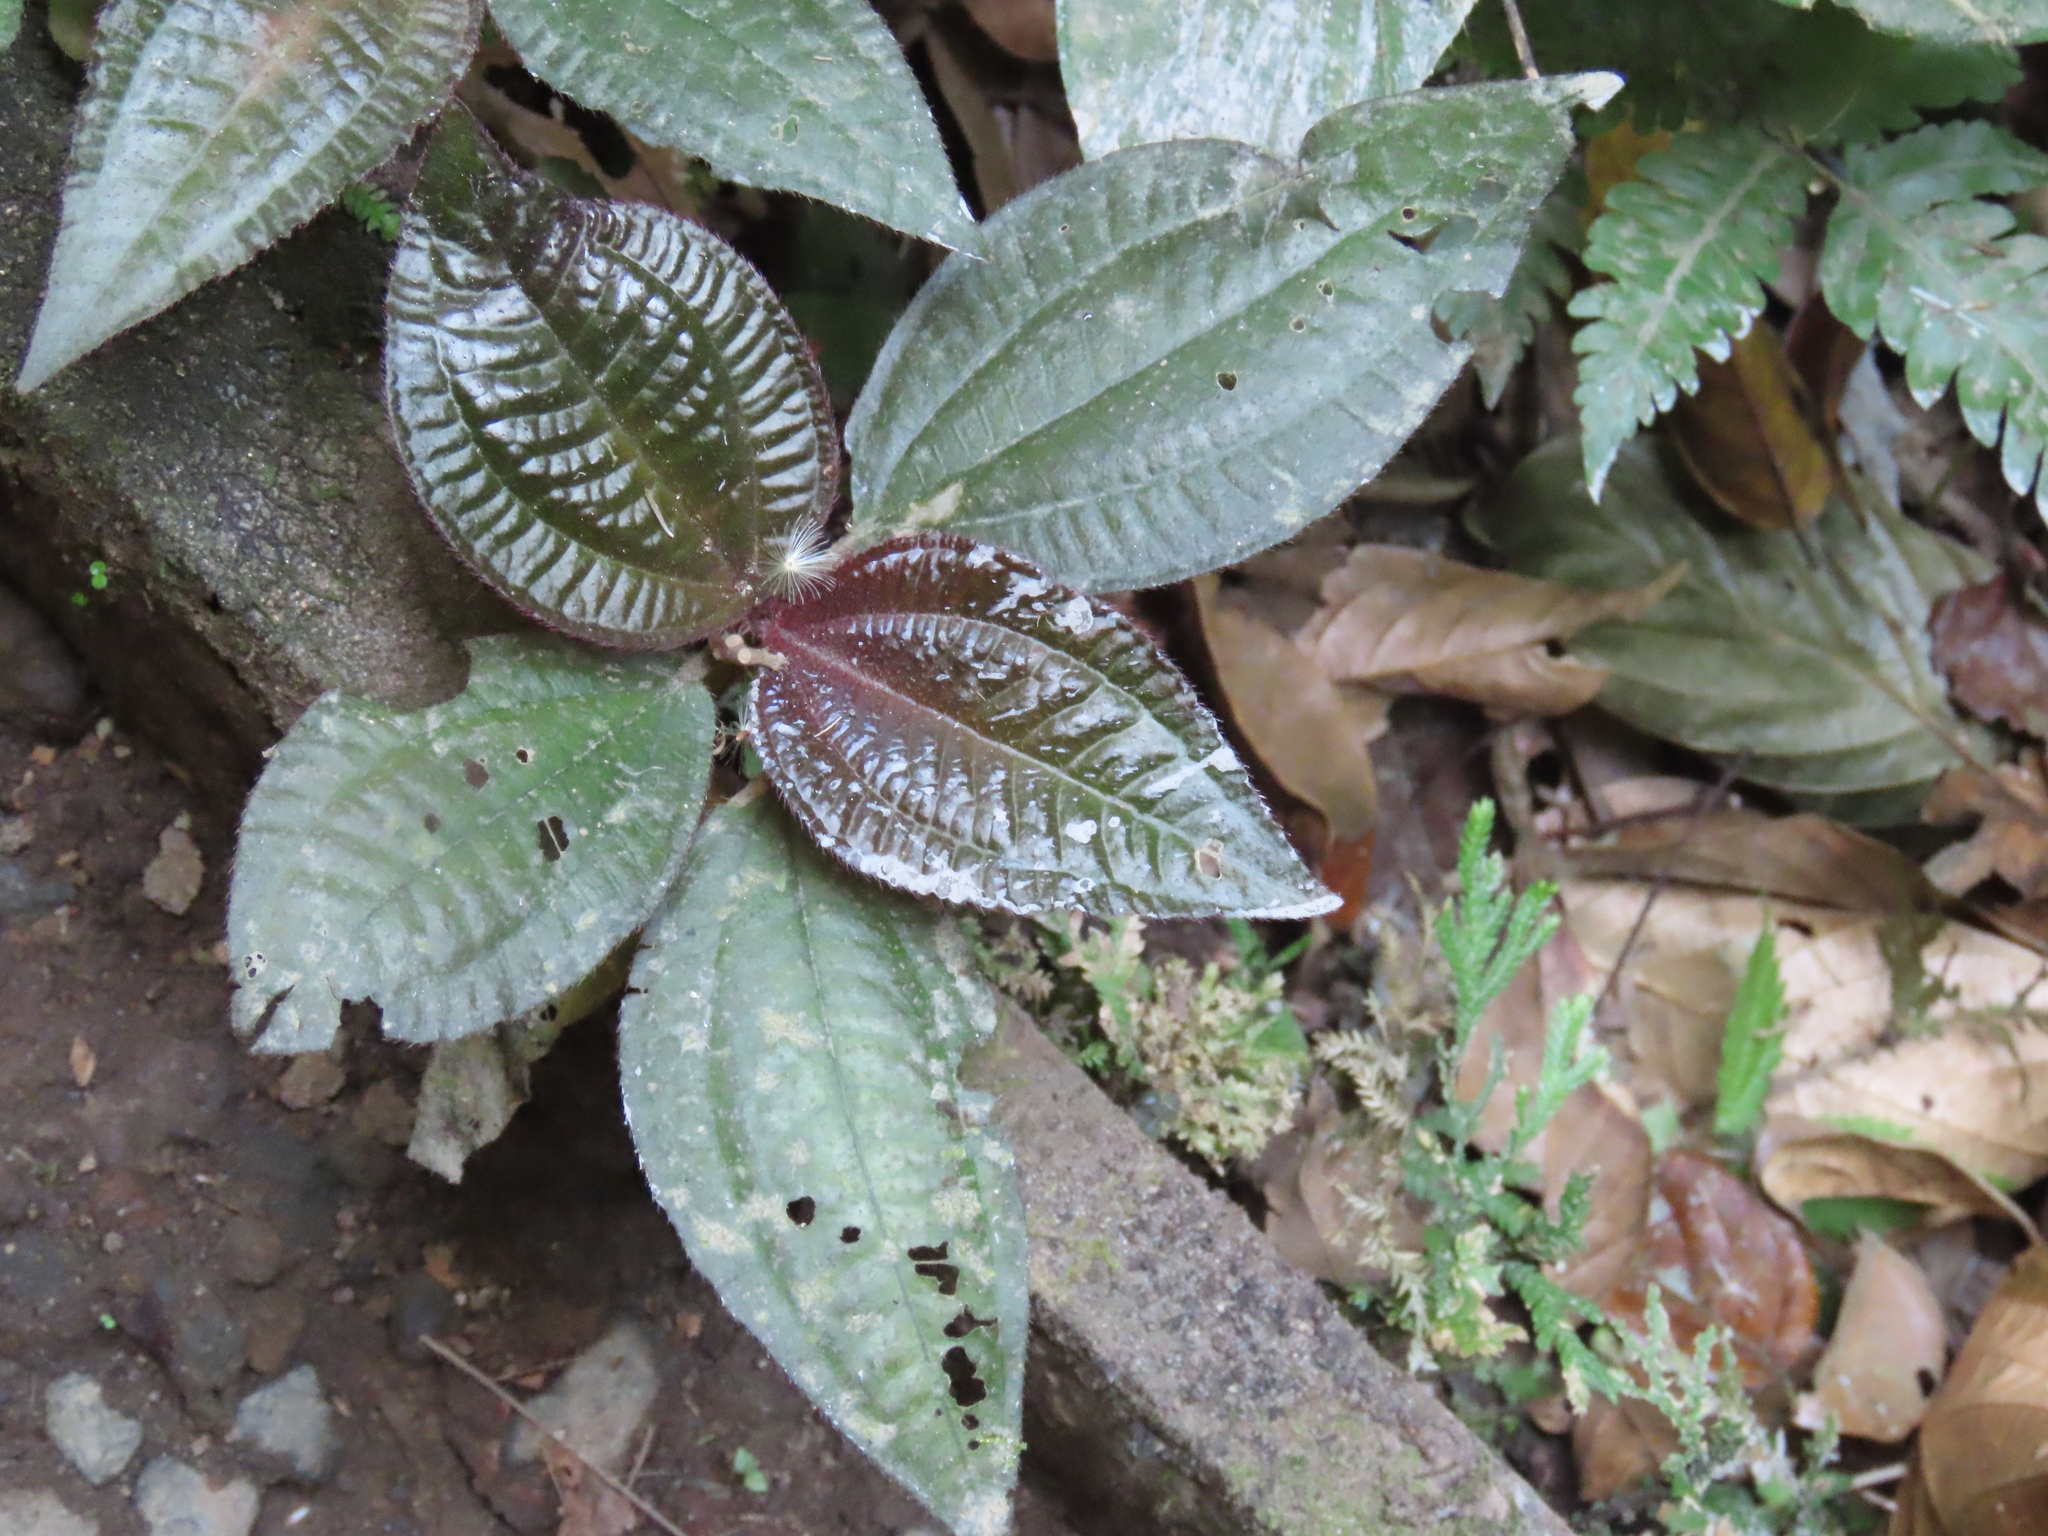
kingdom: Plantae
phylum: Tracheophyta
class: Magnoliopsida
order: Myrtales
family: Melastomataceae
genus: Triolena
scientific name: Triolena hirsuta
